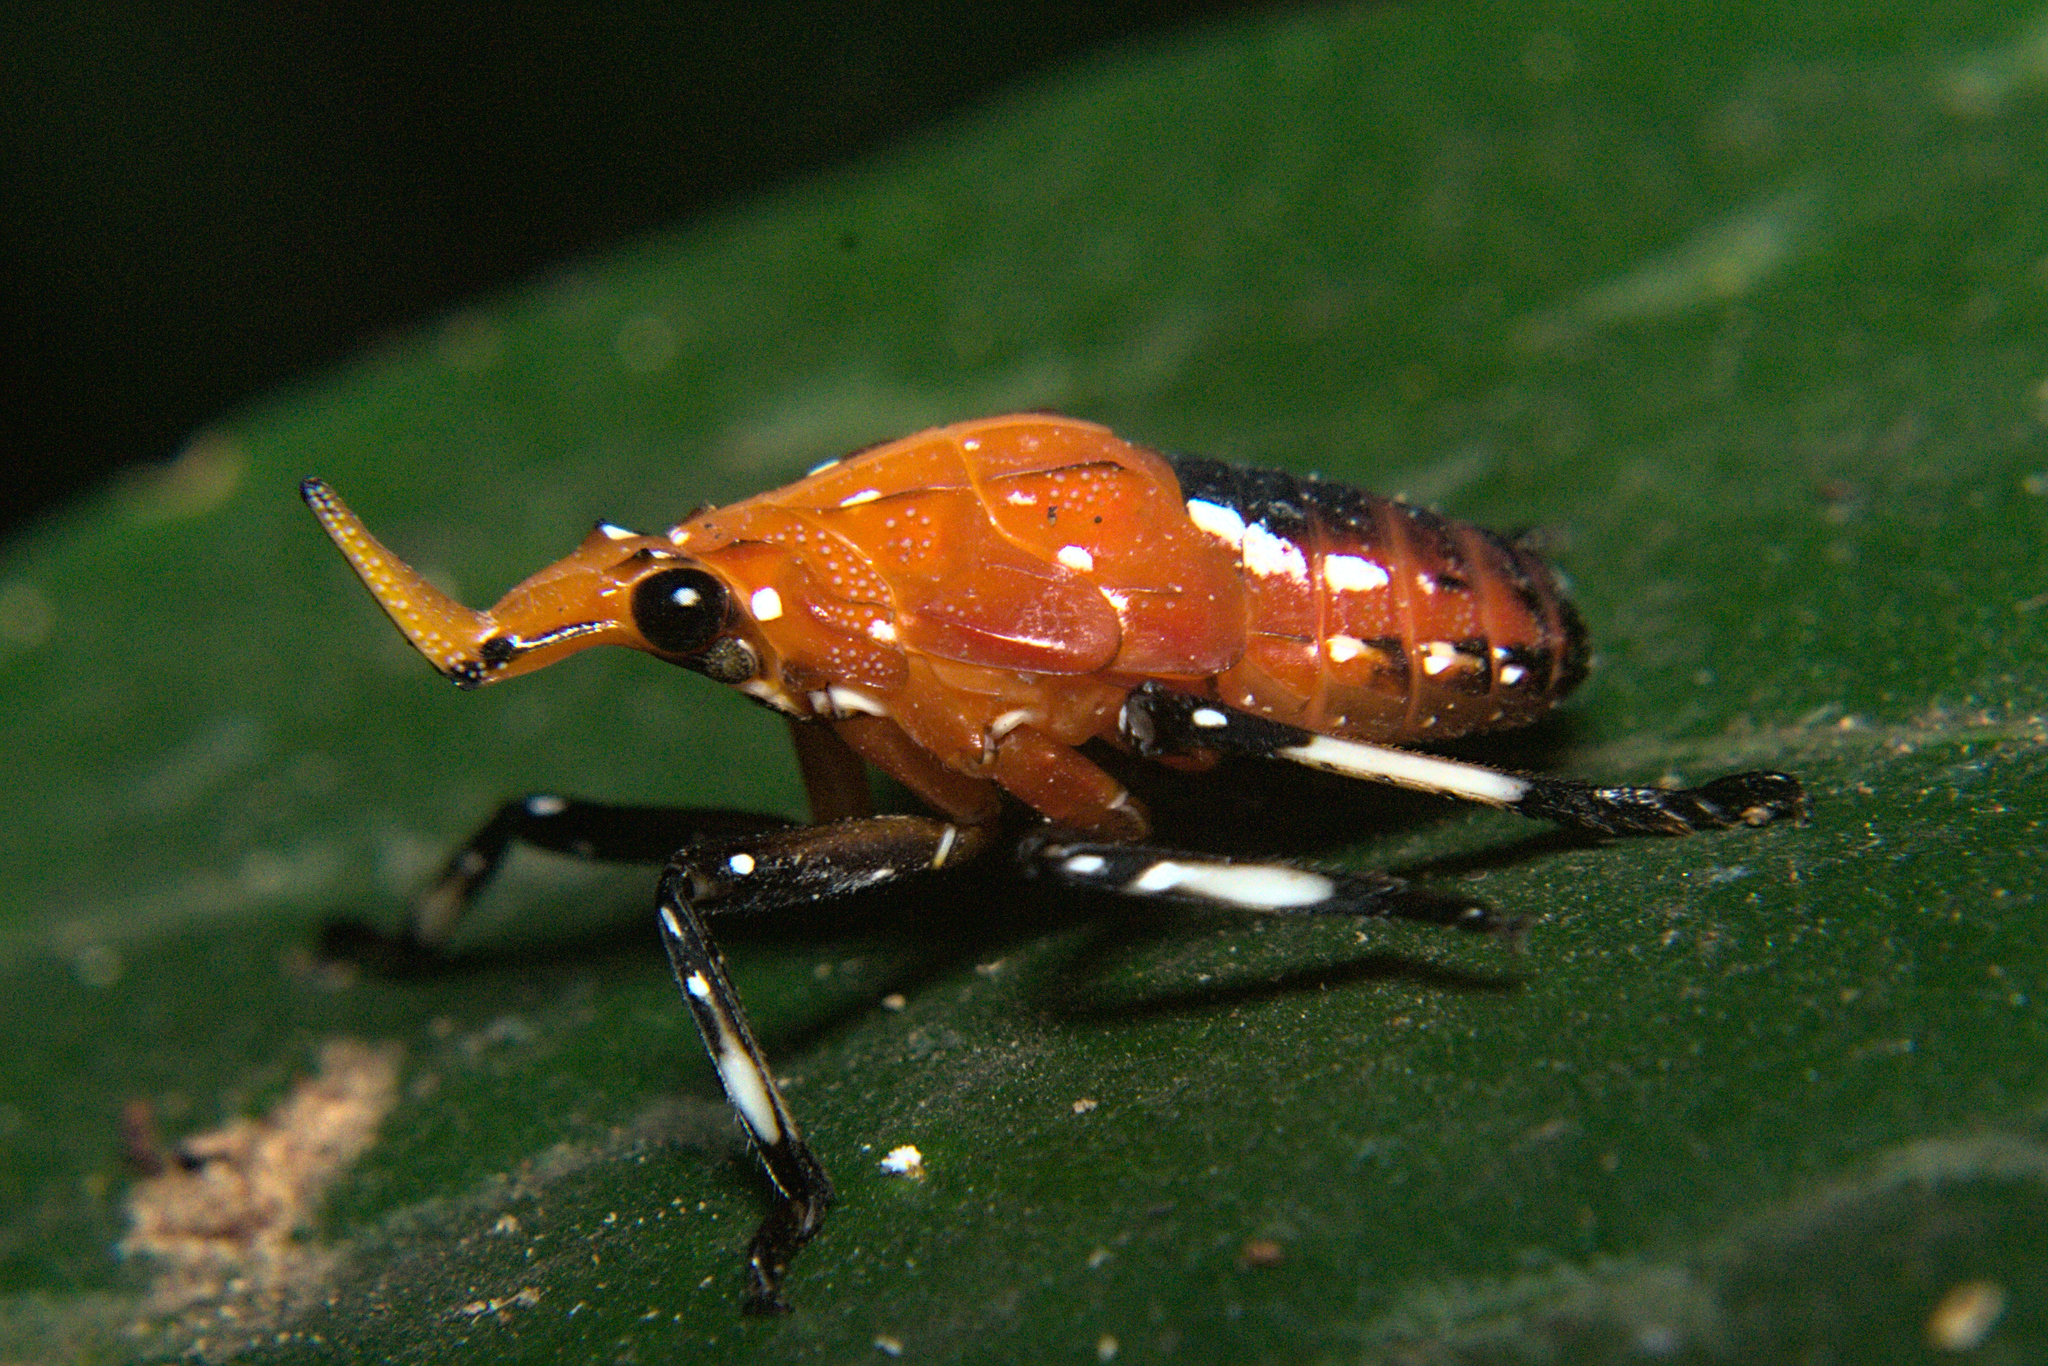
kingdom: Animalia
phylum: Arthropoda
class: Insecta
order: Hemiptera
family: Fulgoridae
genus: Kalidasa
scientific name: Kalidasa lanata
